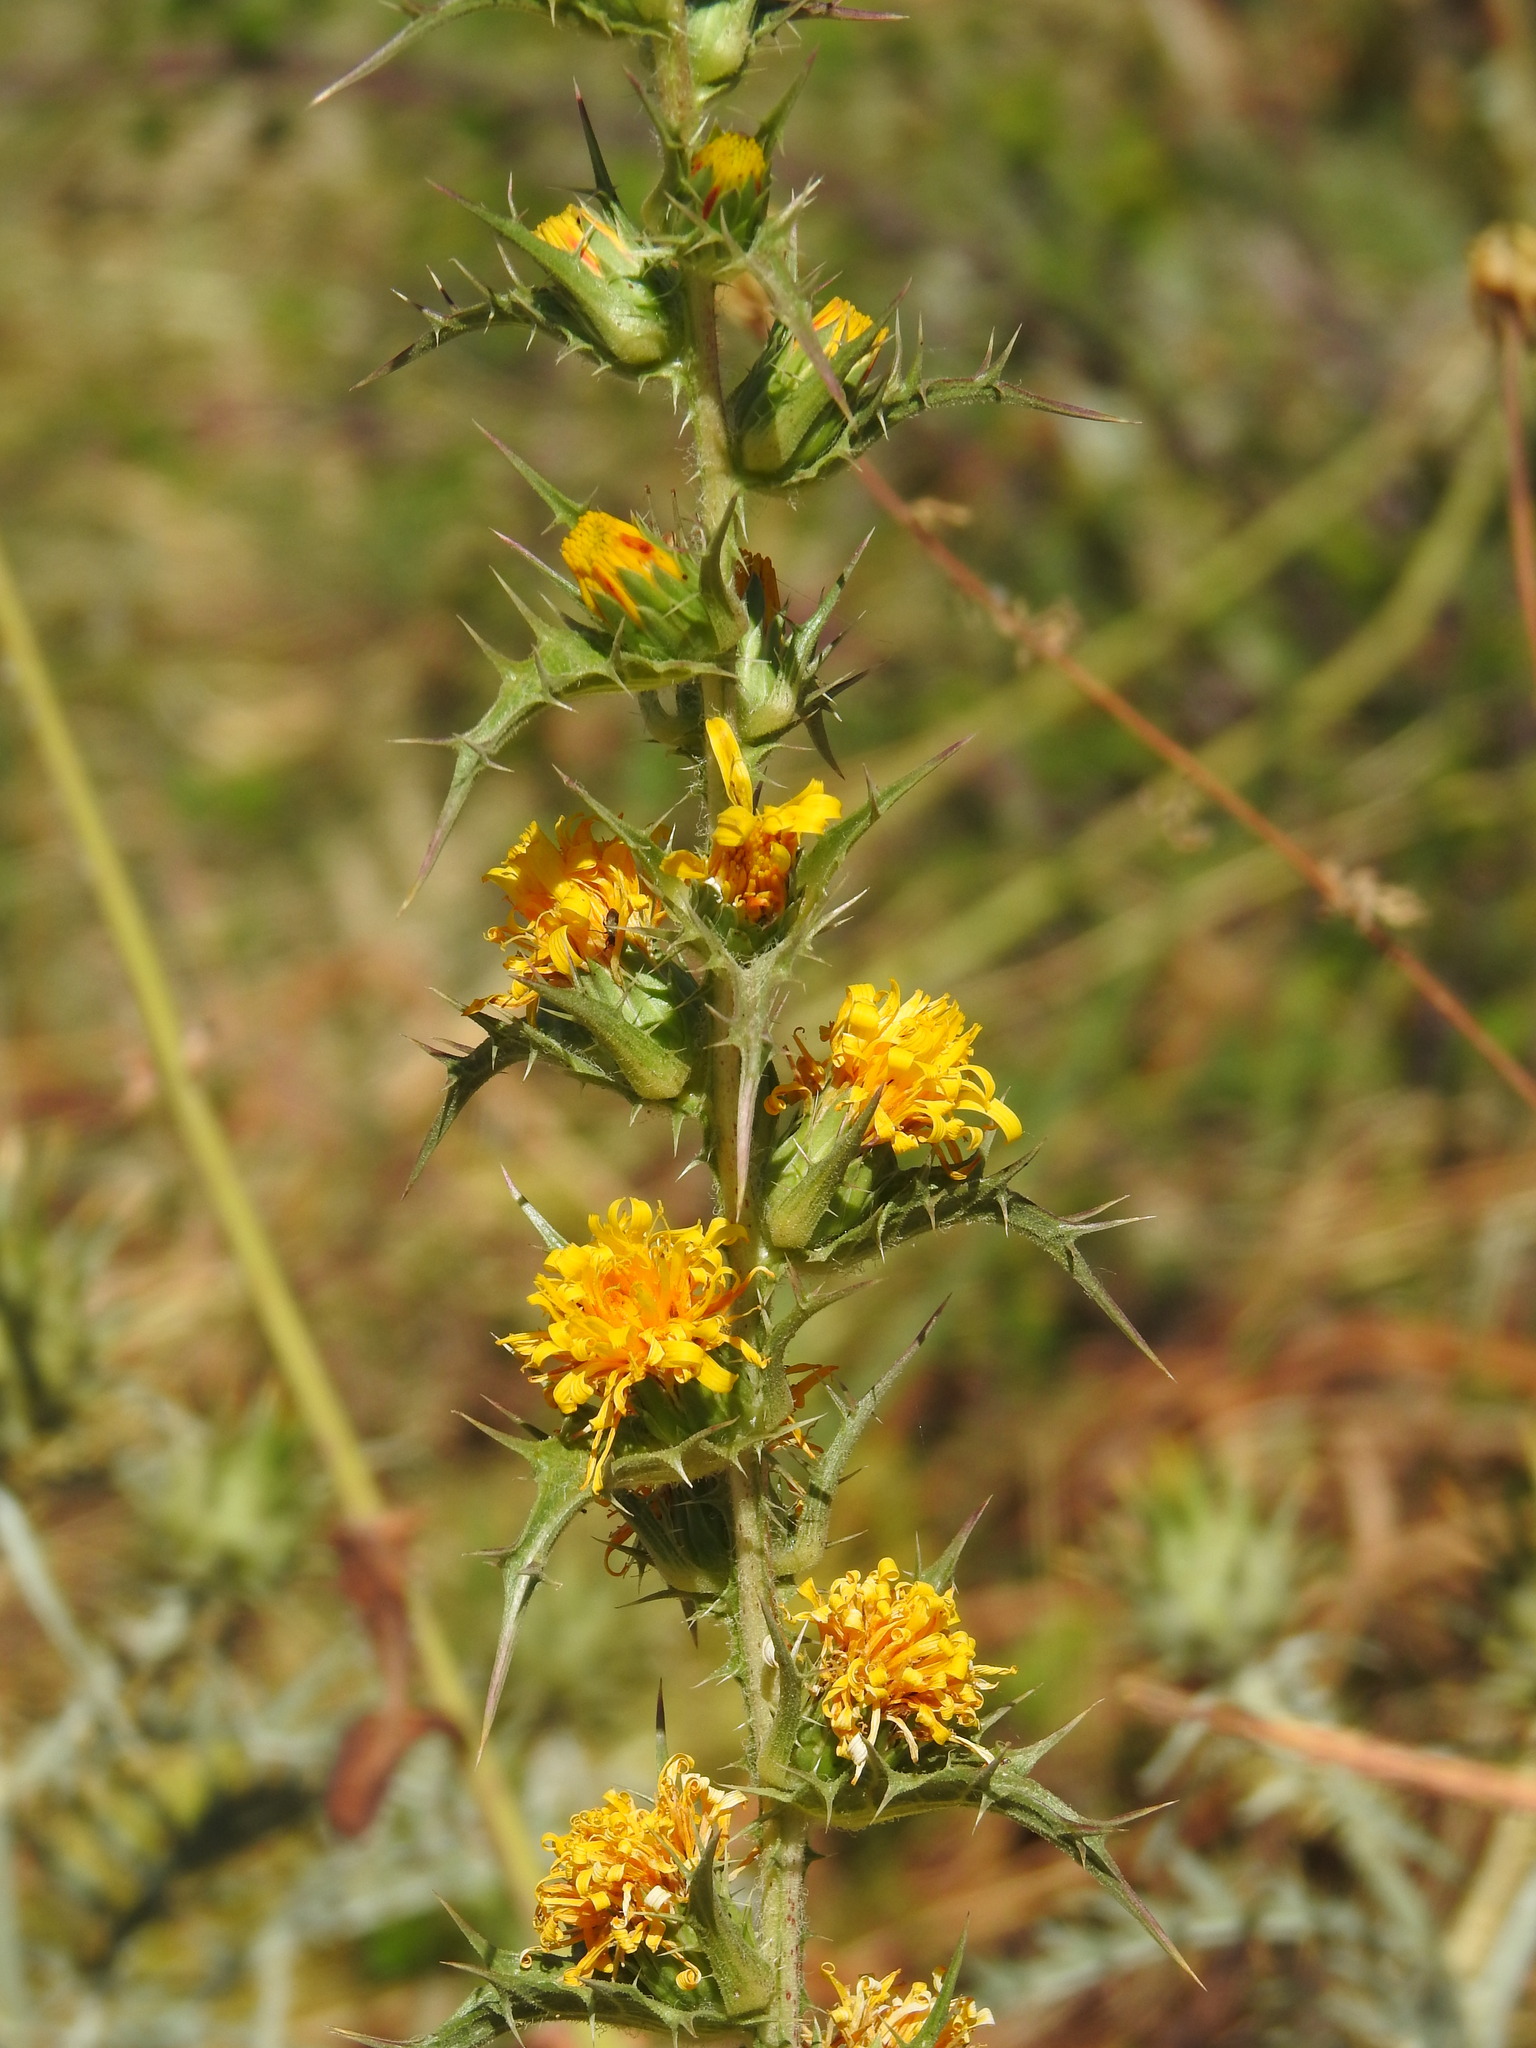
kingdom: Plantae
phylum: Tracheophyta
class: Magnoliopsida
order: Asterales
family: Asteraceae
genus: Scolymus
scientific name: Scolymus hispanicus
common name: Golden thistle
